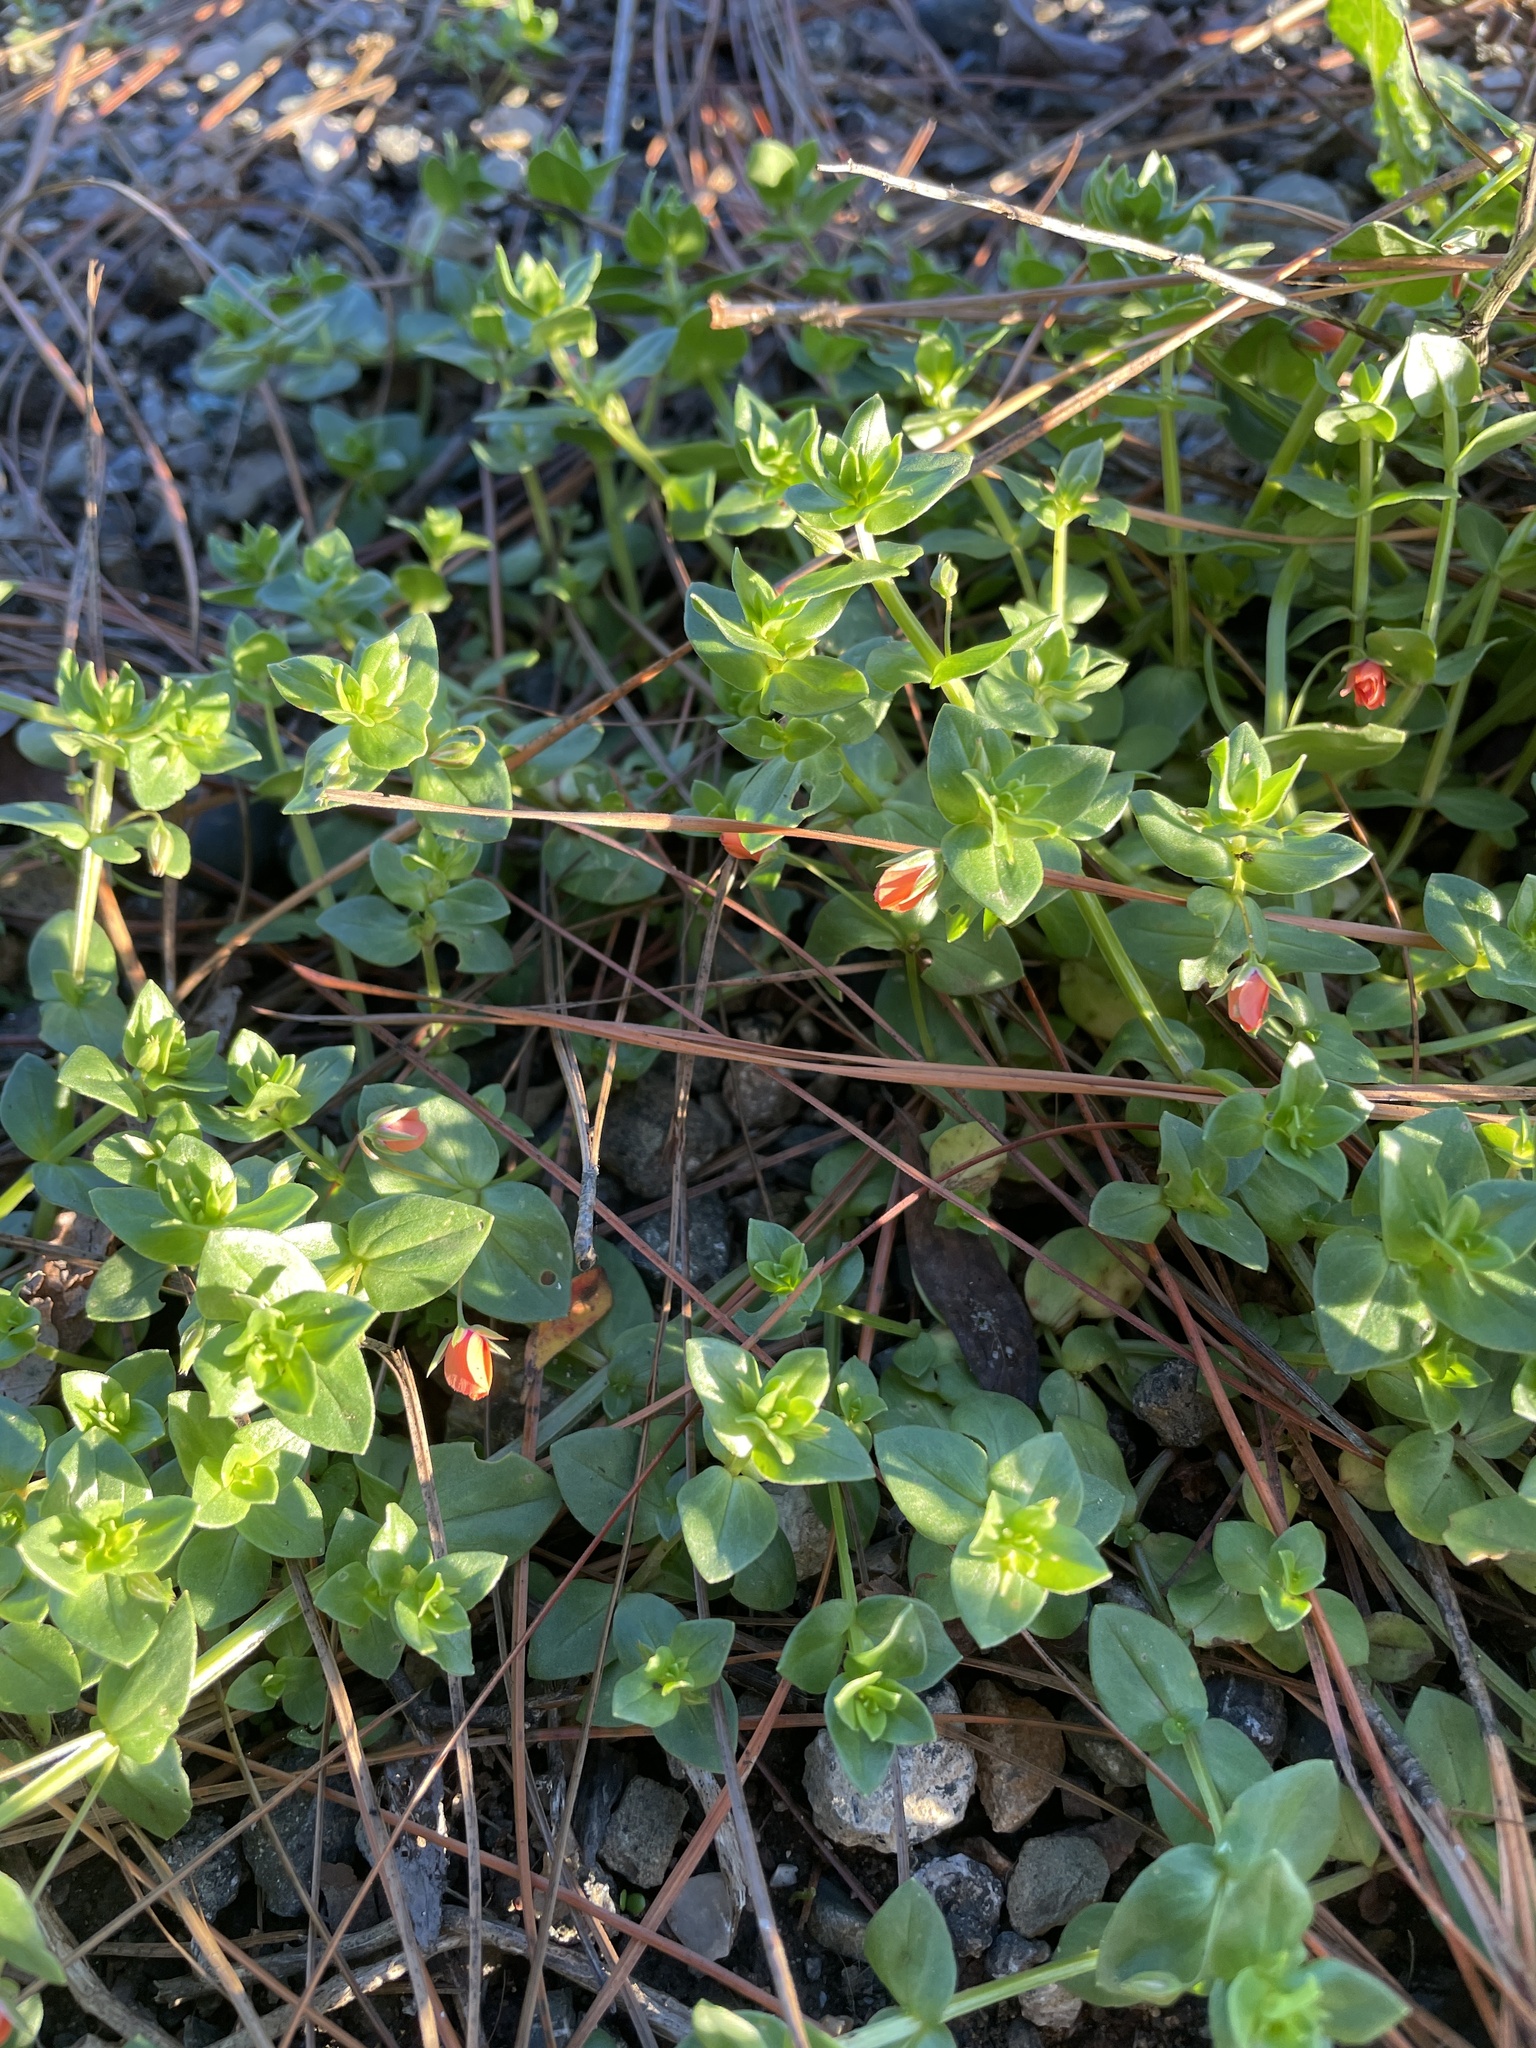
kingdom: Plantae
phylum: Tracheophyta
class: Magnoliopsida
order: Ericales
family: Primulaceae
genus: Lysimachia
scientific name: Lysimachia arvensis
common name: Scarlet pimpernel
